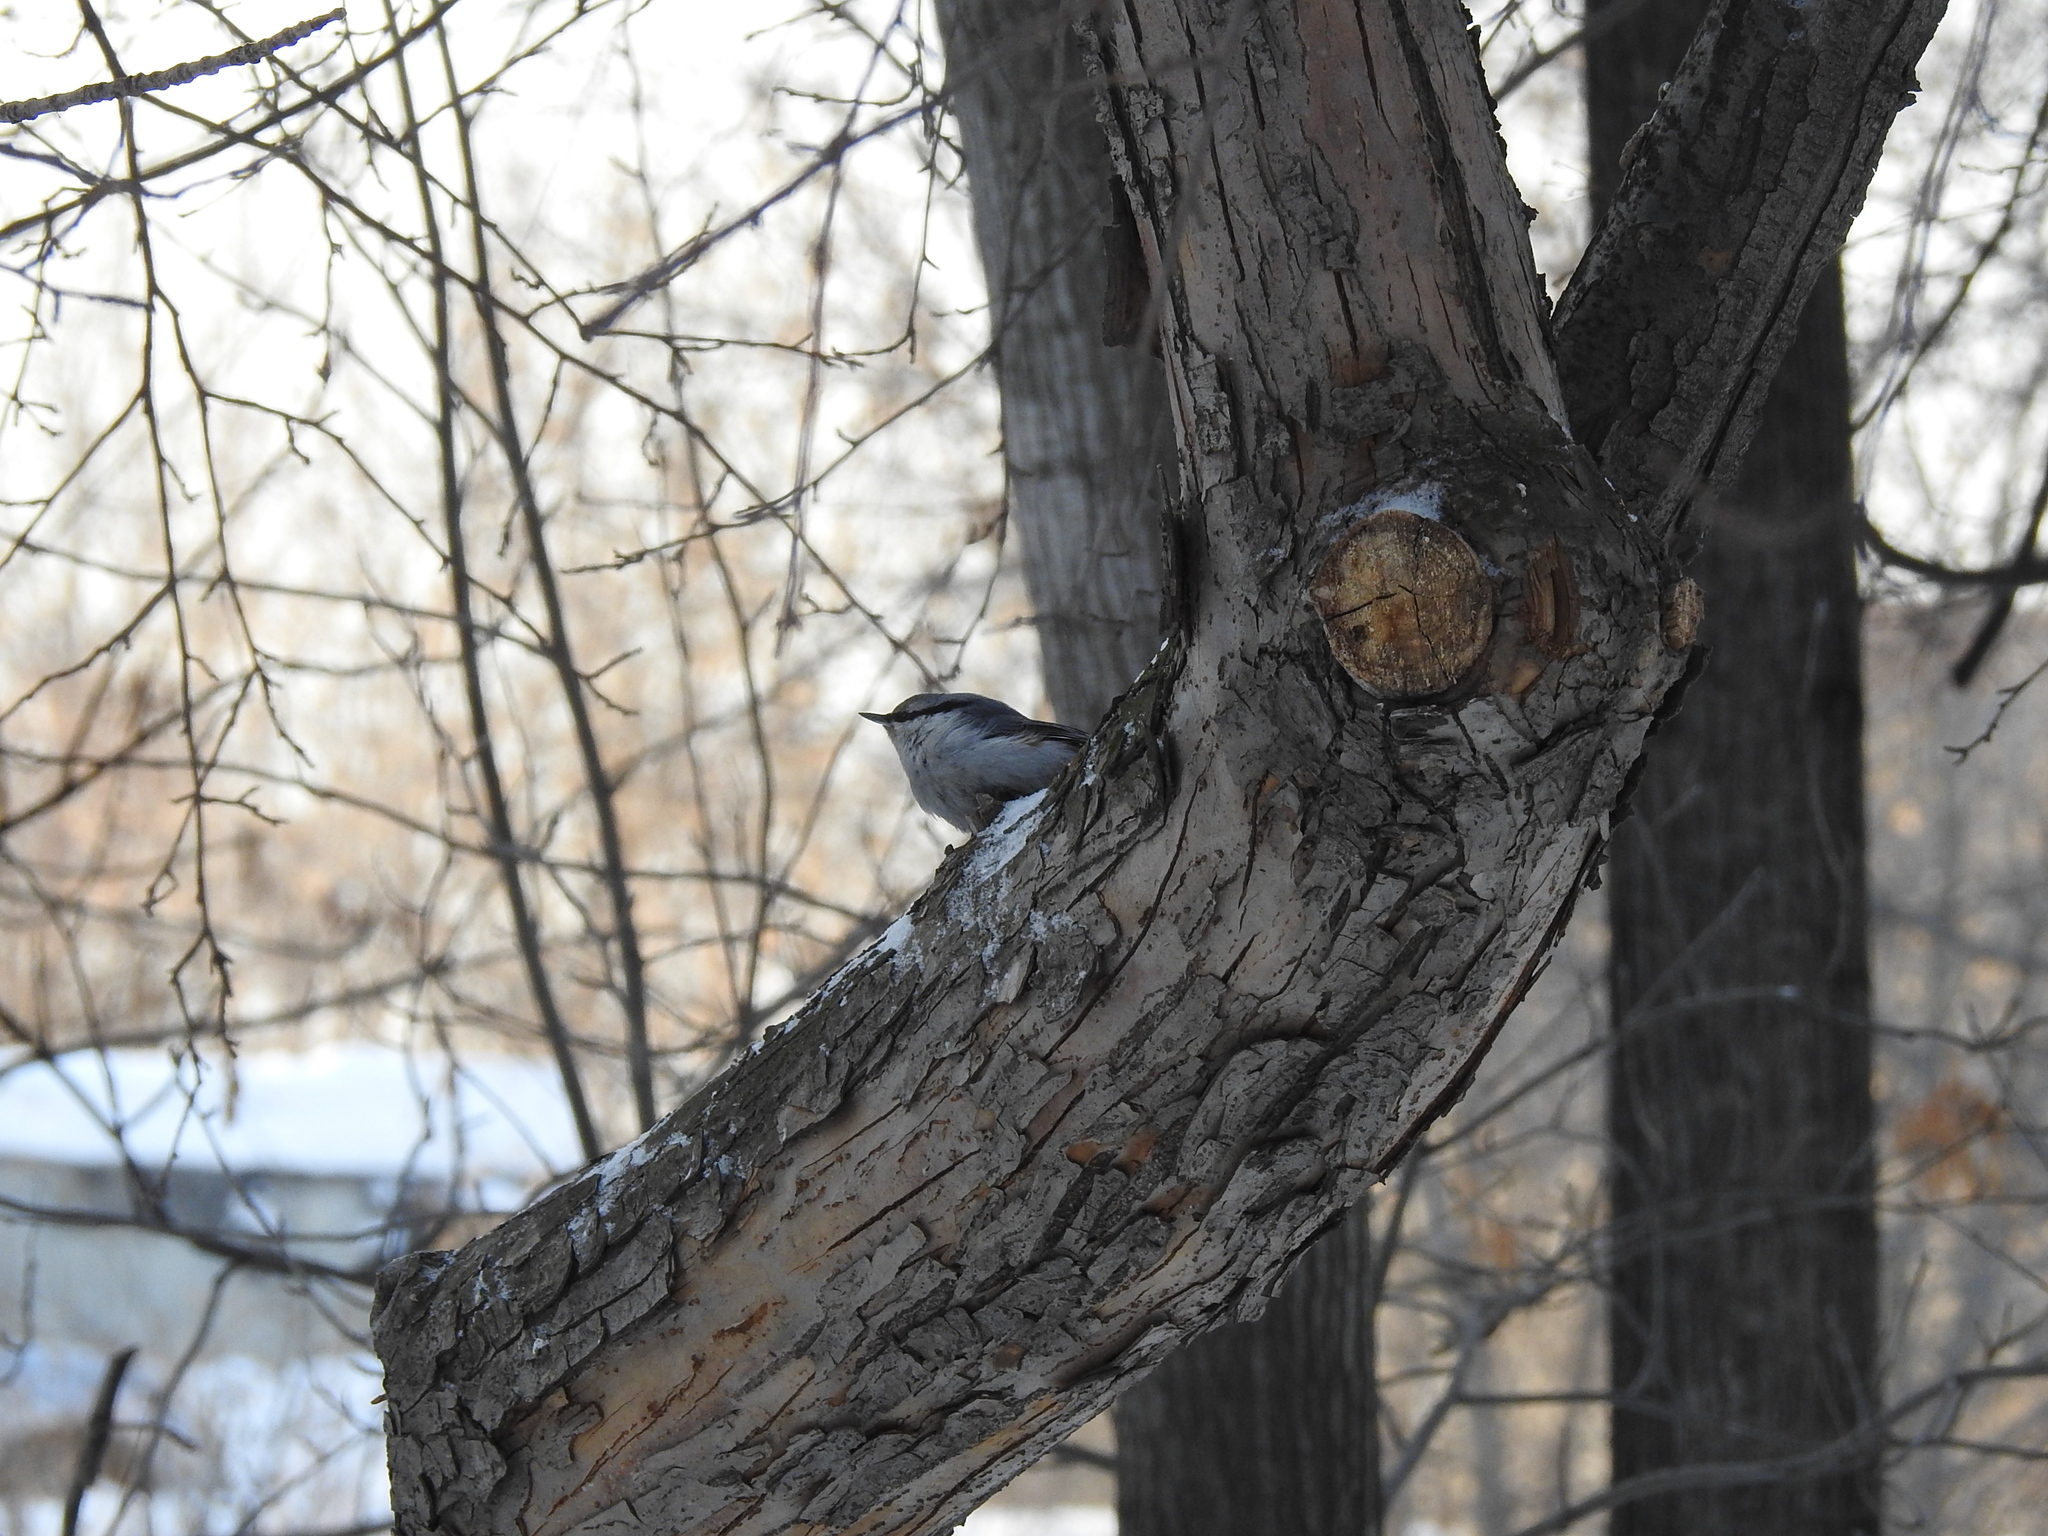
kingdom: Animalia
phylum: Chordata
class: Aves
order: Passeriformes
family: Sittidae
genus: Sitta
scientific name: Sitta europaea
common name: Eurasian nuthatch
